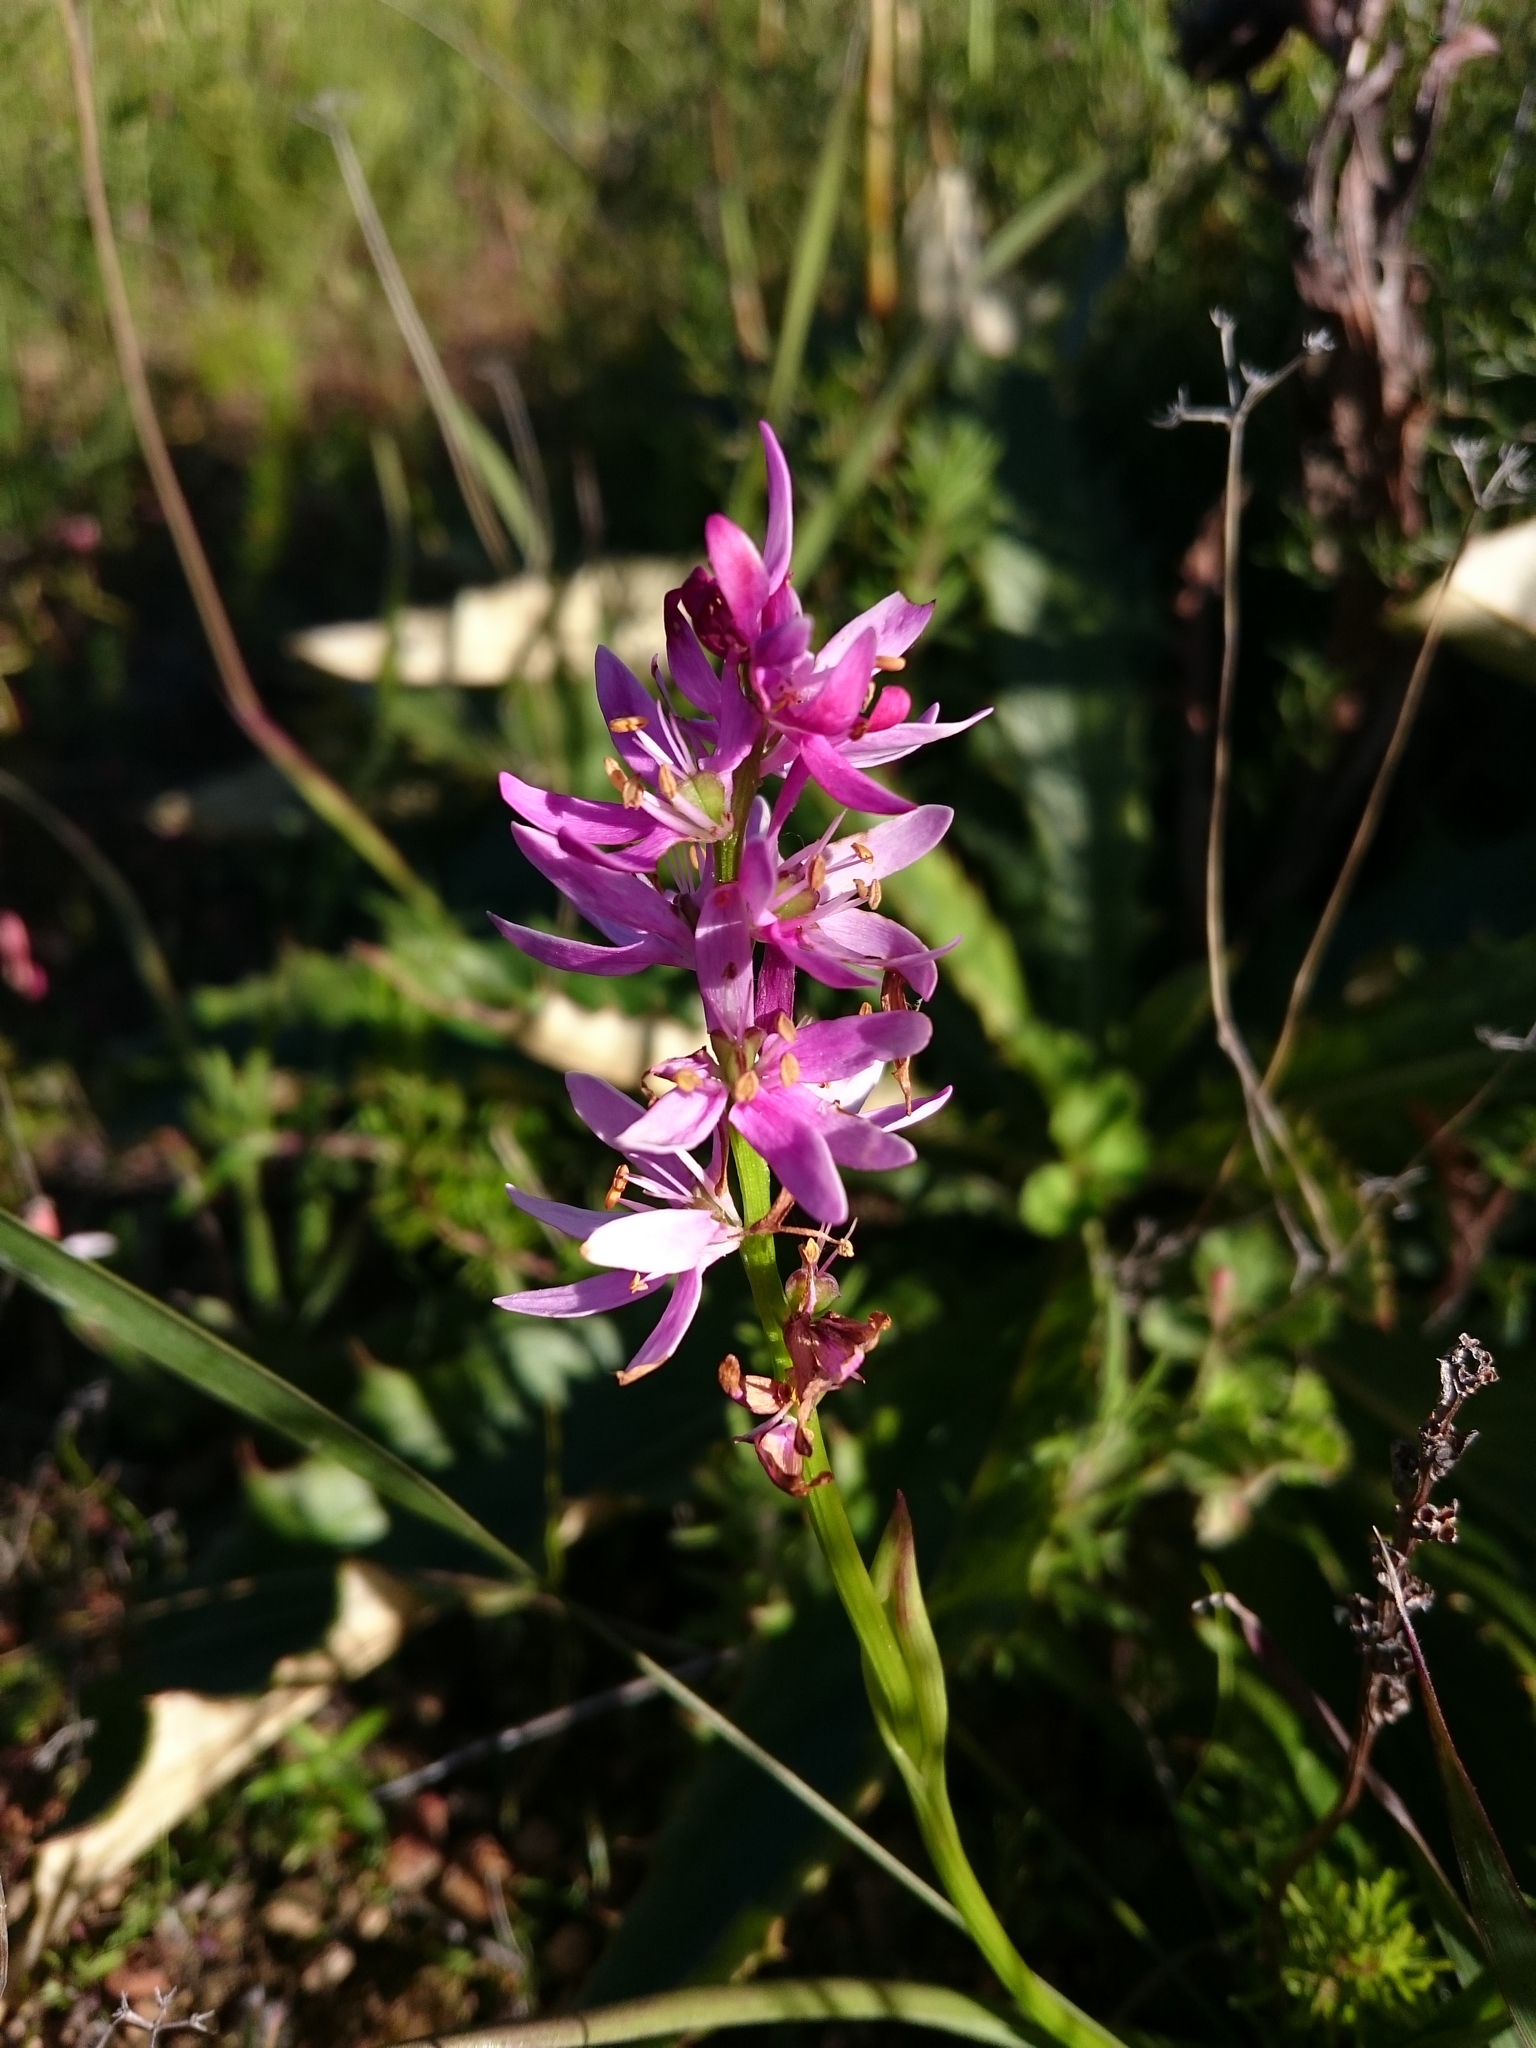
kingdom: Plantae
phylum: Tracheophyta
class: Liliopsida
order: Liliales
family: Colchicaceae
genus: Wurmbea
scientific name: Wurmbea punctata
